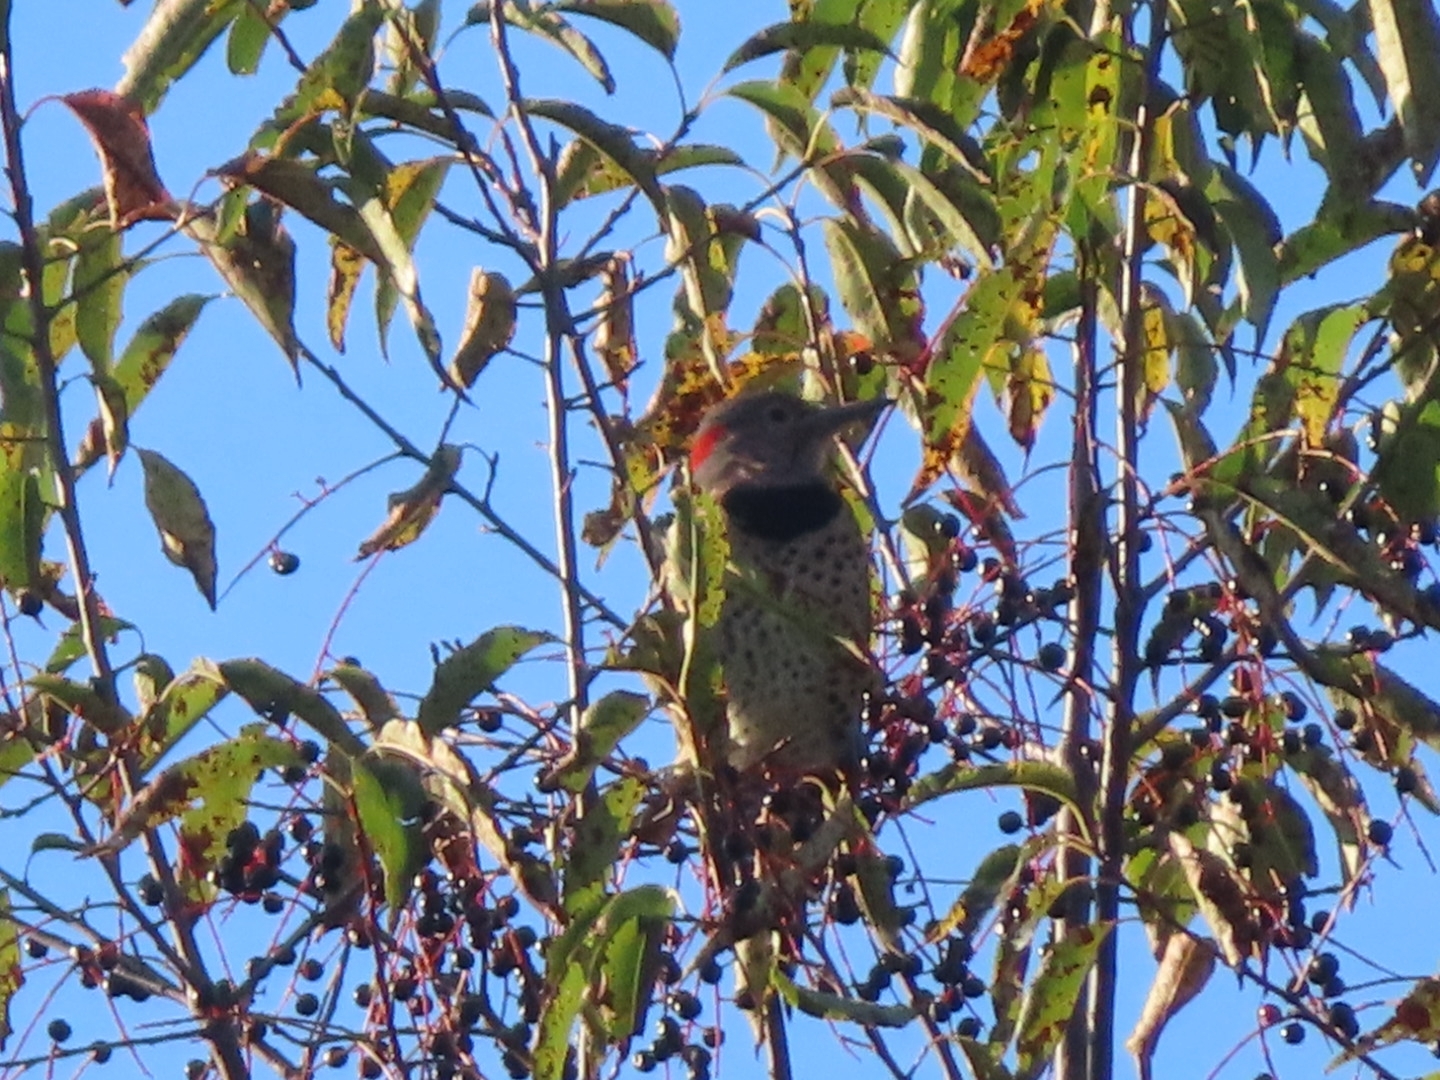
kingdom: Animalia
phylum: Chordata
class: Aves
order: Piciformes
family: Picidae
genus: Colaptes
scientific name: Colaptes auratus
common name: Northern flicker
